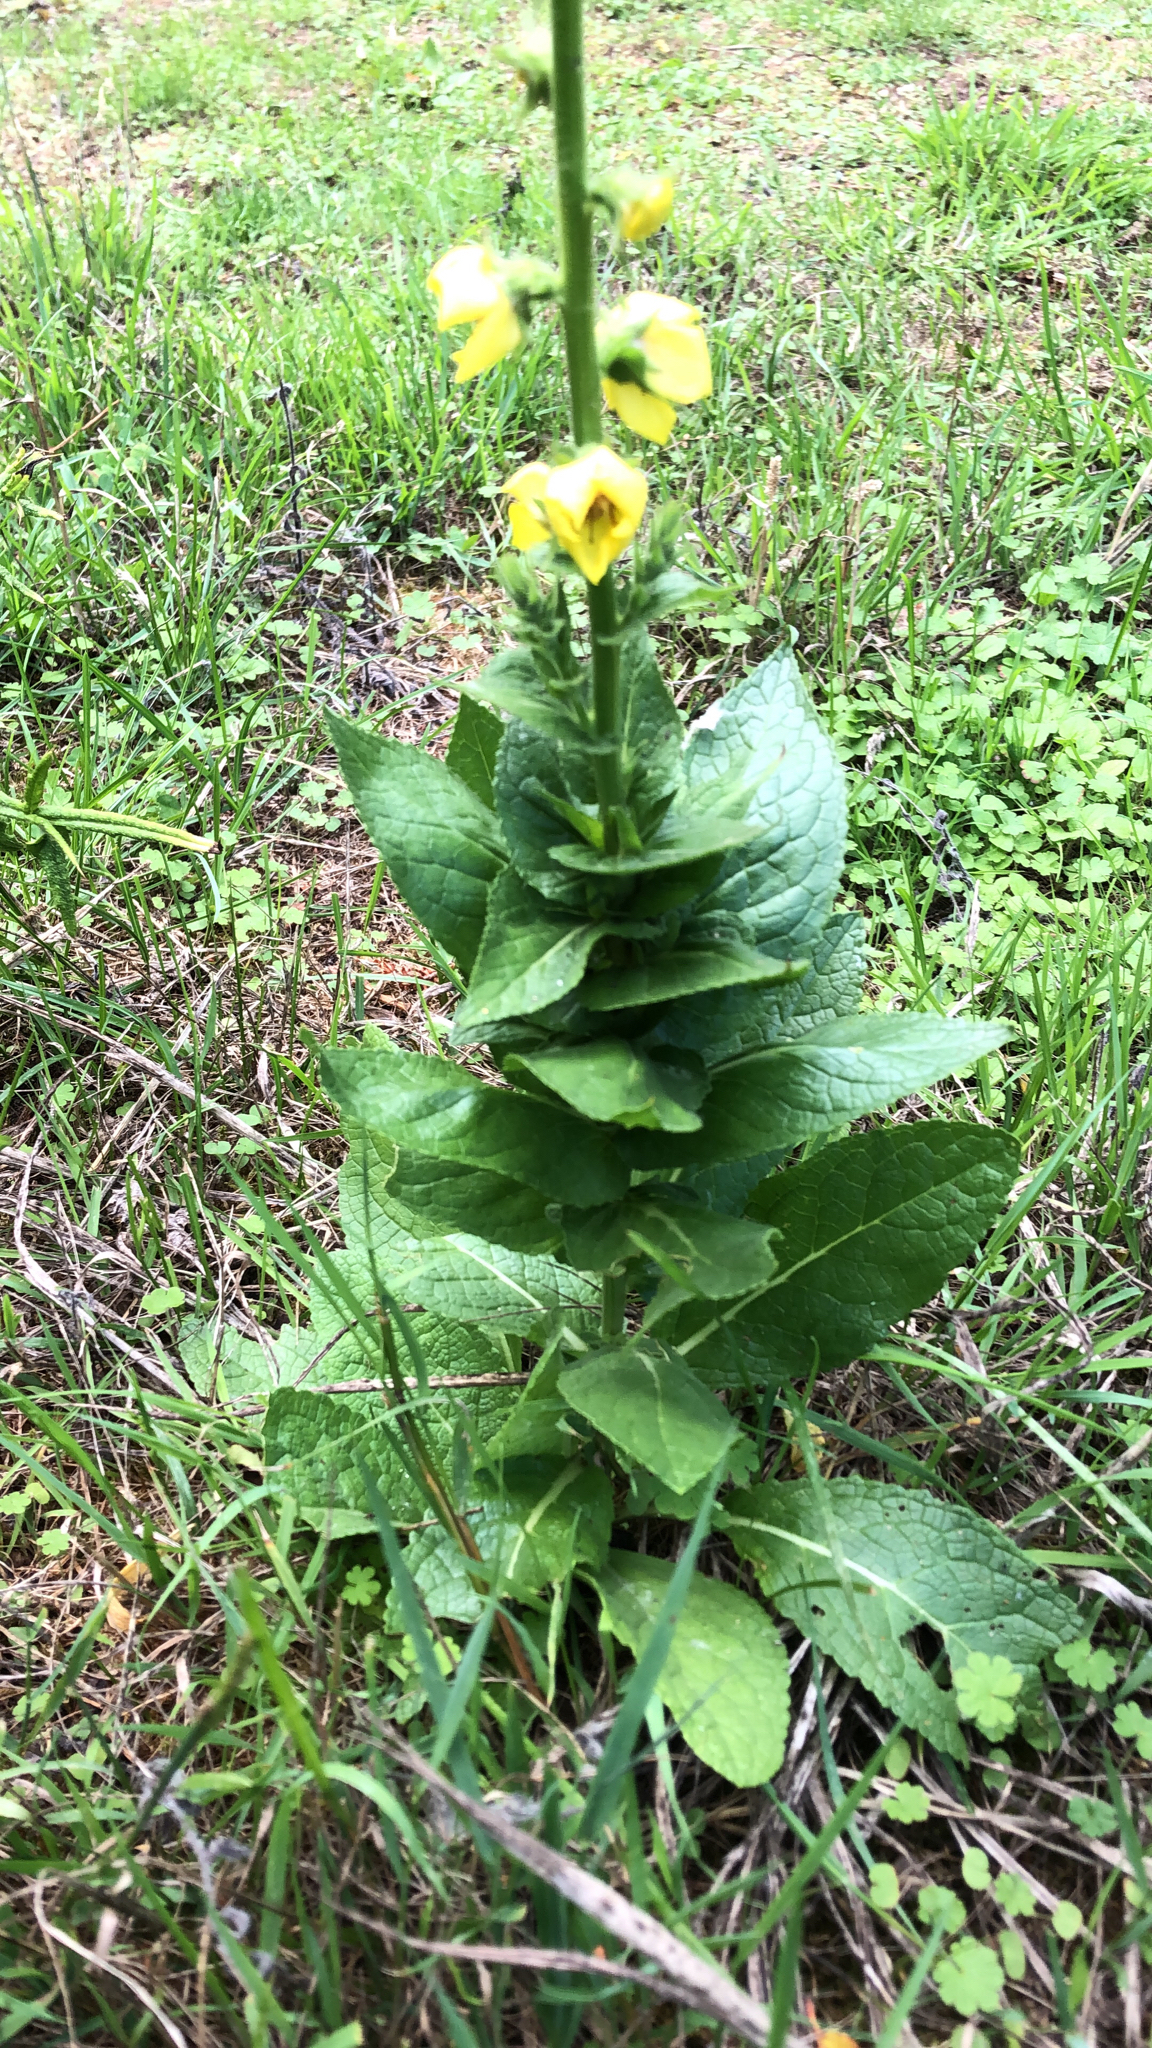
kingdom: Plantae
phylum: Tracheophyta
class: Magnoliopsida
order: Lamiales
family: Scrophulariaceae
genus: Verbascum
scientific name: Verbascum virgatum
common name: Twiggy mullein
